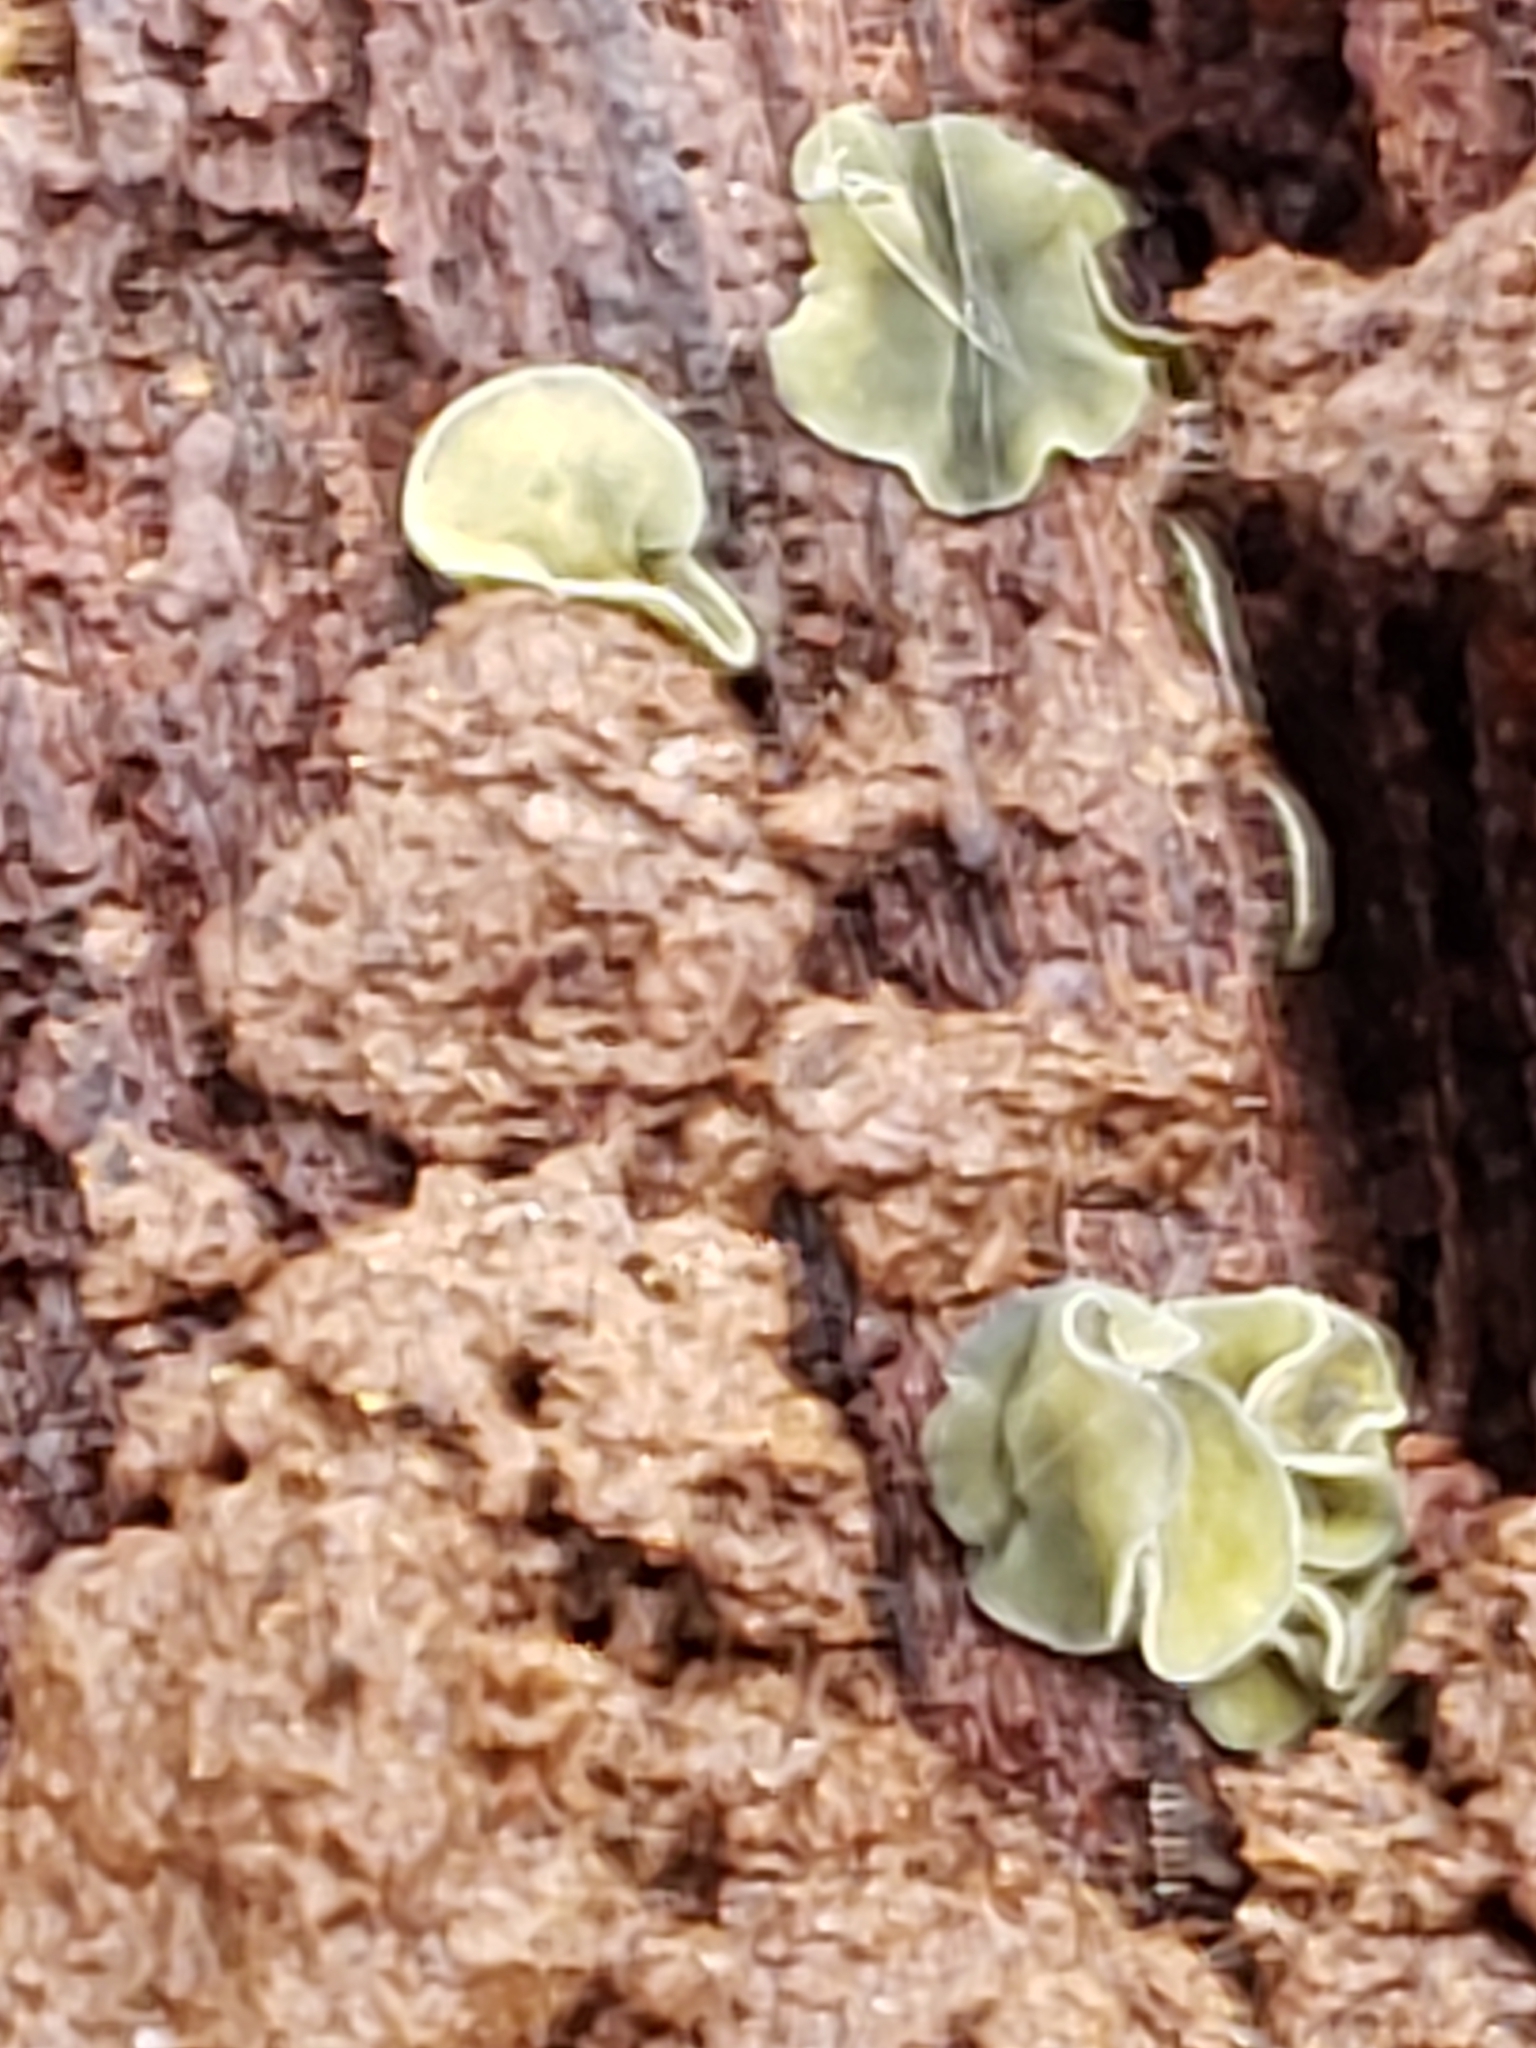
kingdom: Fungi
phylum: Ascomycota
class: Leotiomycetes
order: Helotiales
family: Chlorospleniaceae
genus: Chlorosplenium
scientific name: Chlorosplenium chlora
